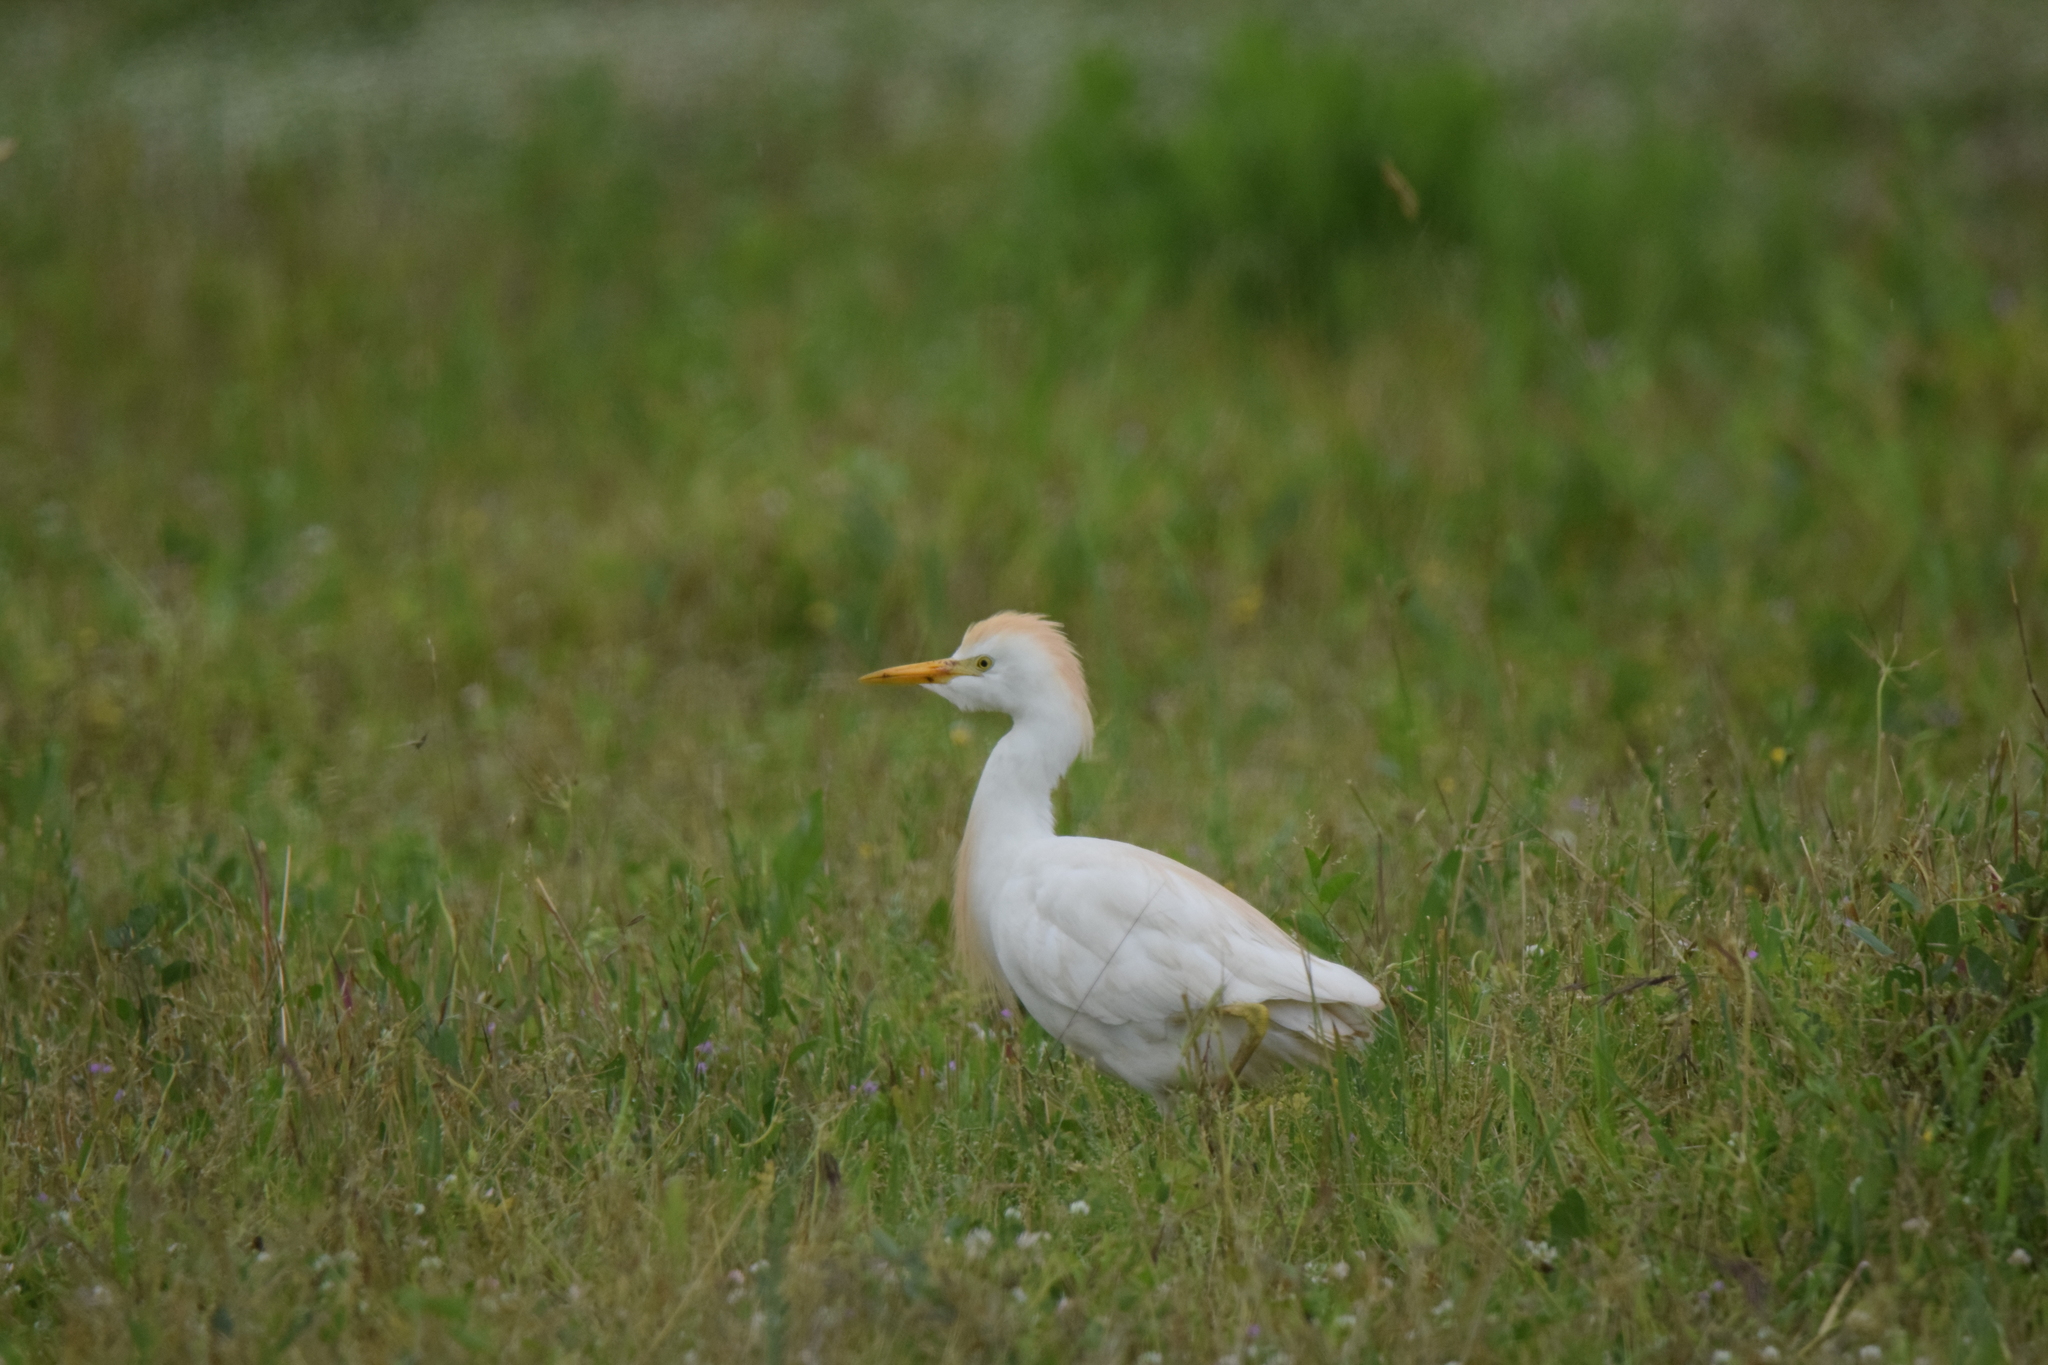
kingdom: Animalia
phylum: Chordata
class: Aves
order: Pelecaniformes
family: Ardeidae
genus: Bubulcus
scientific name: Bubulcus ibis
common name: Cattle egret
